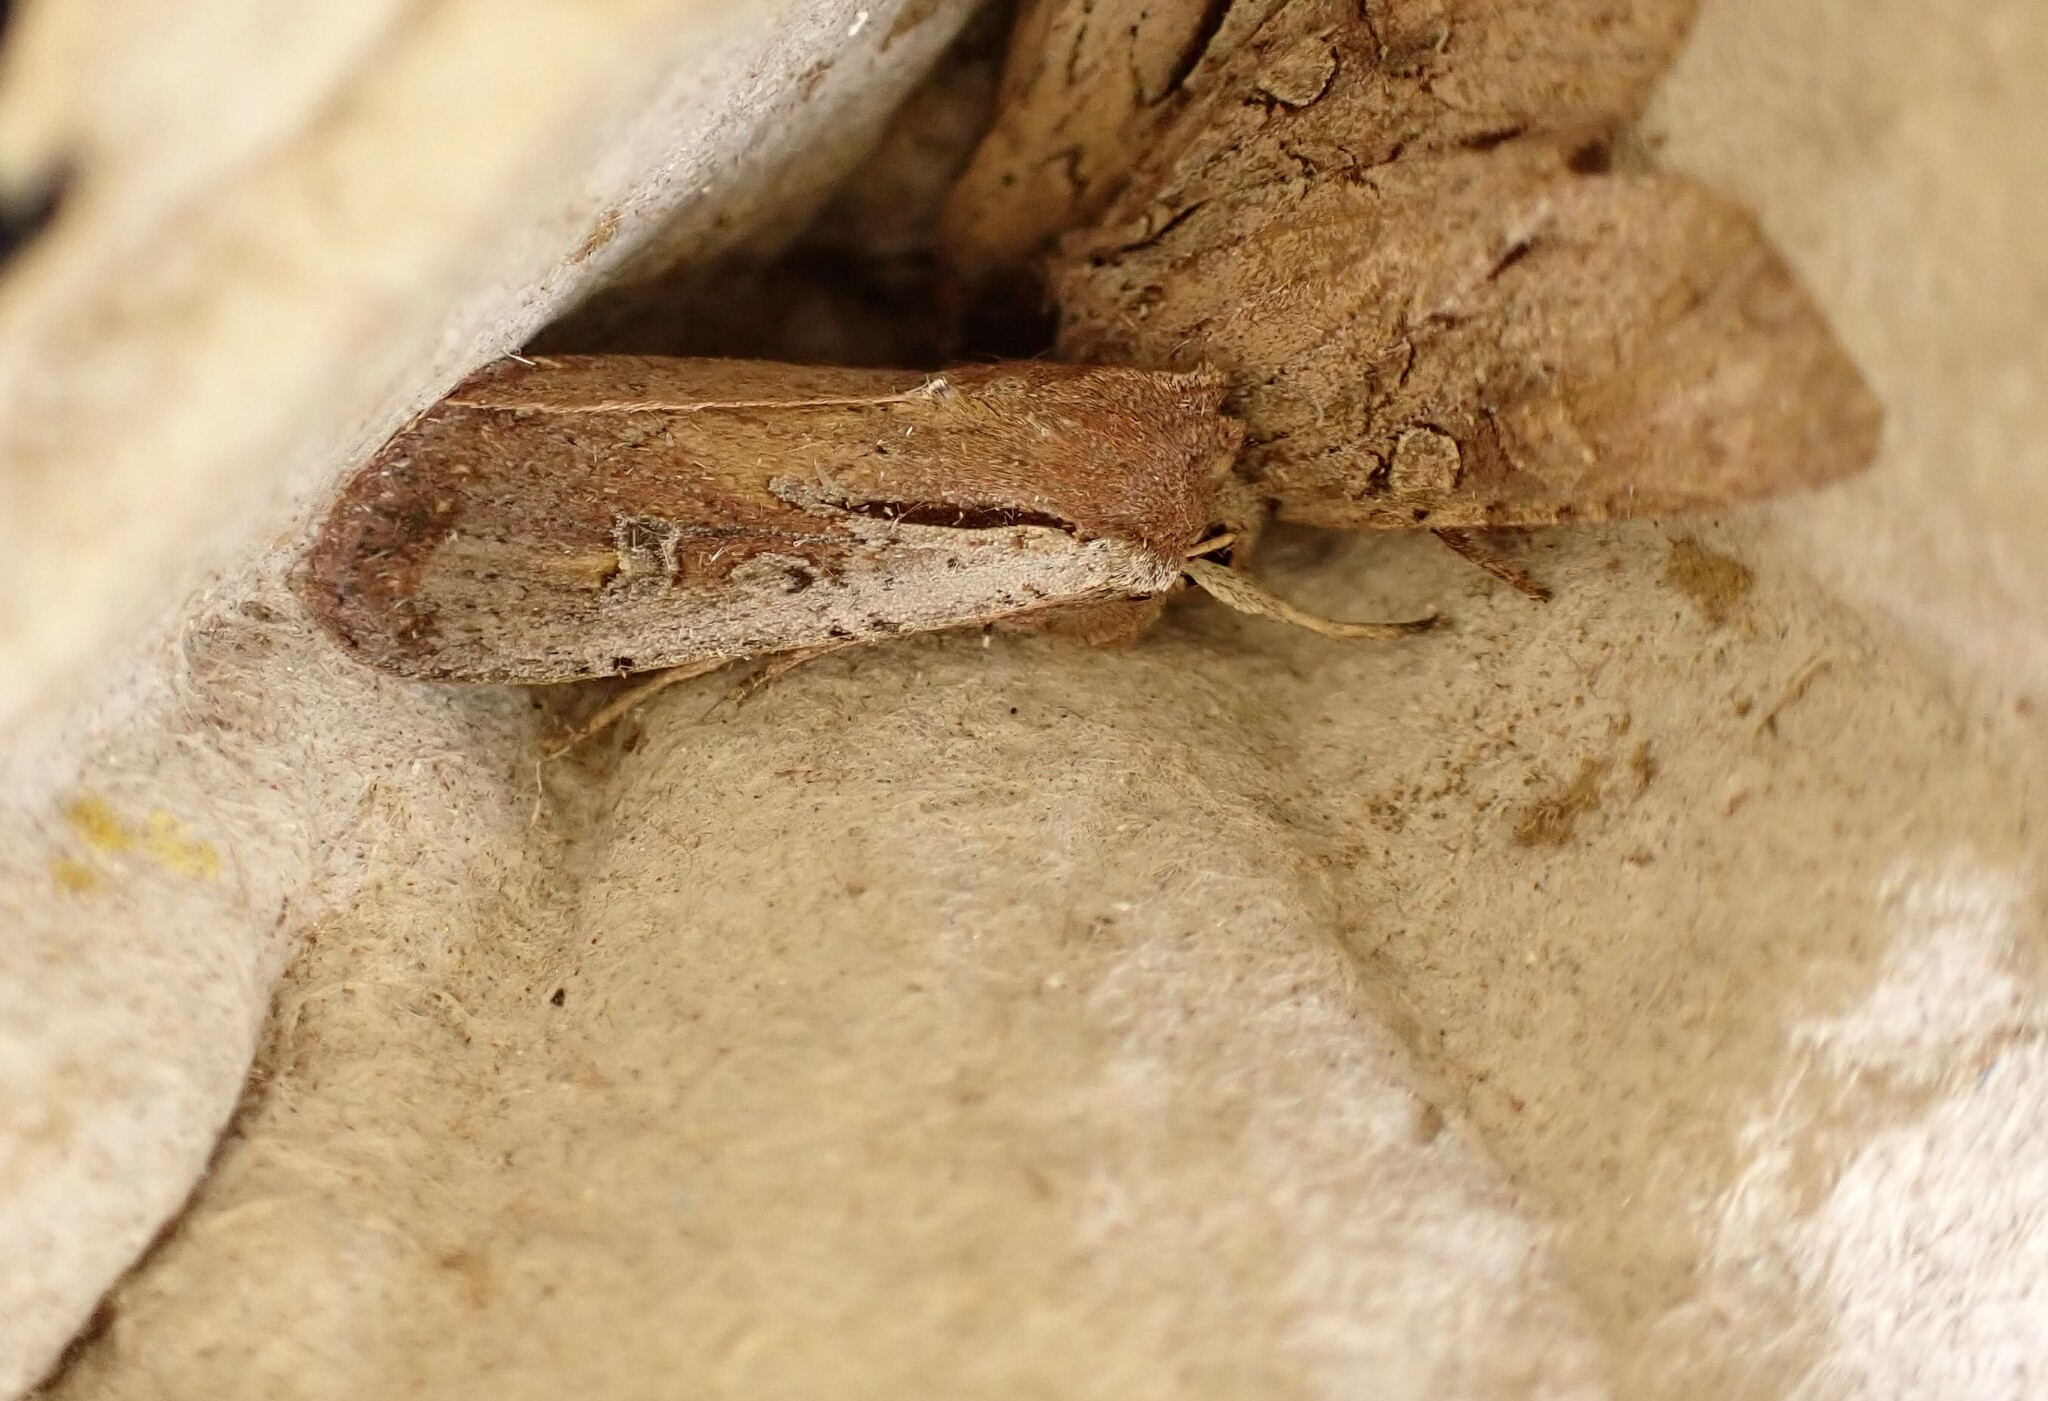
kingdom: Animalia
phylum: Arthropoda
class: Insecta
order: Lepidoptera
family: Noctuidae
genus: Ichneutica
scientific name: Ichneutica atristriga
